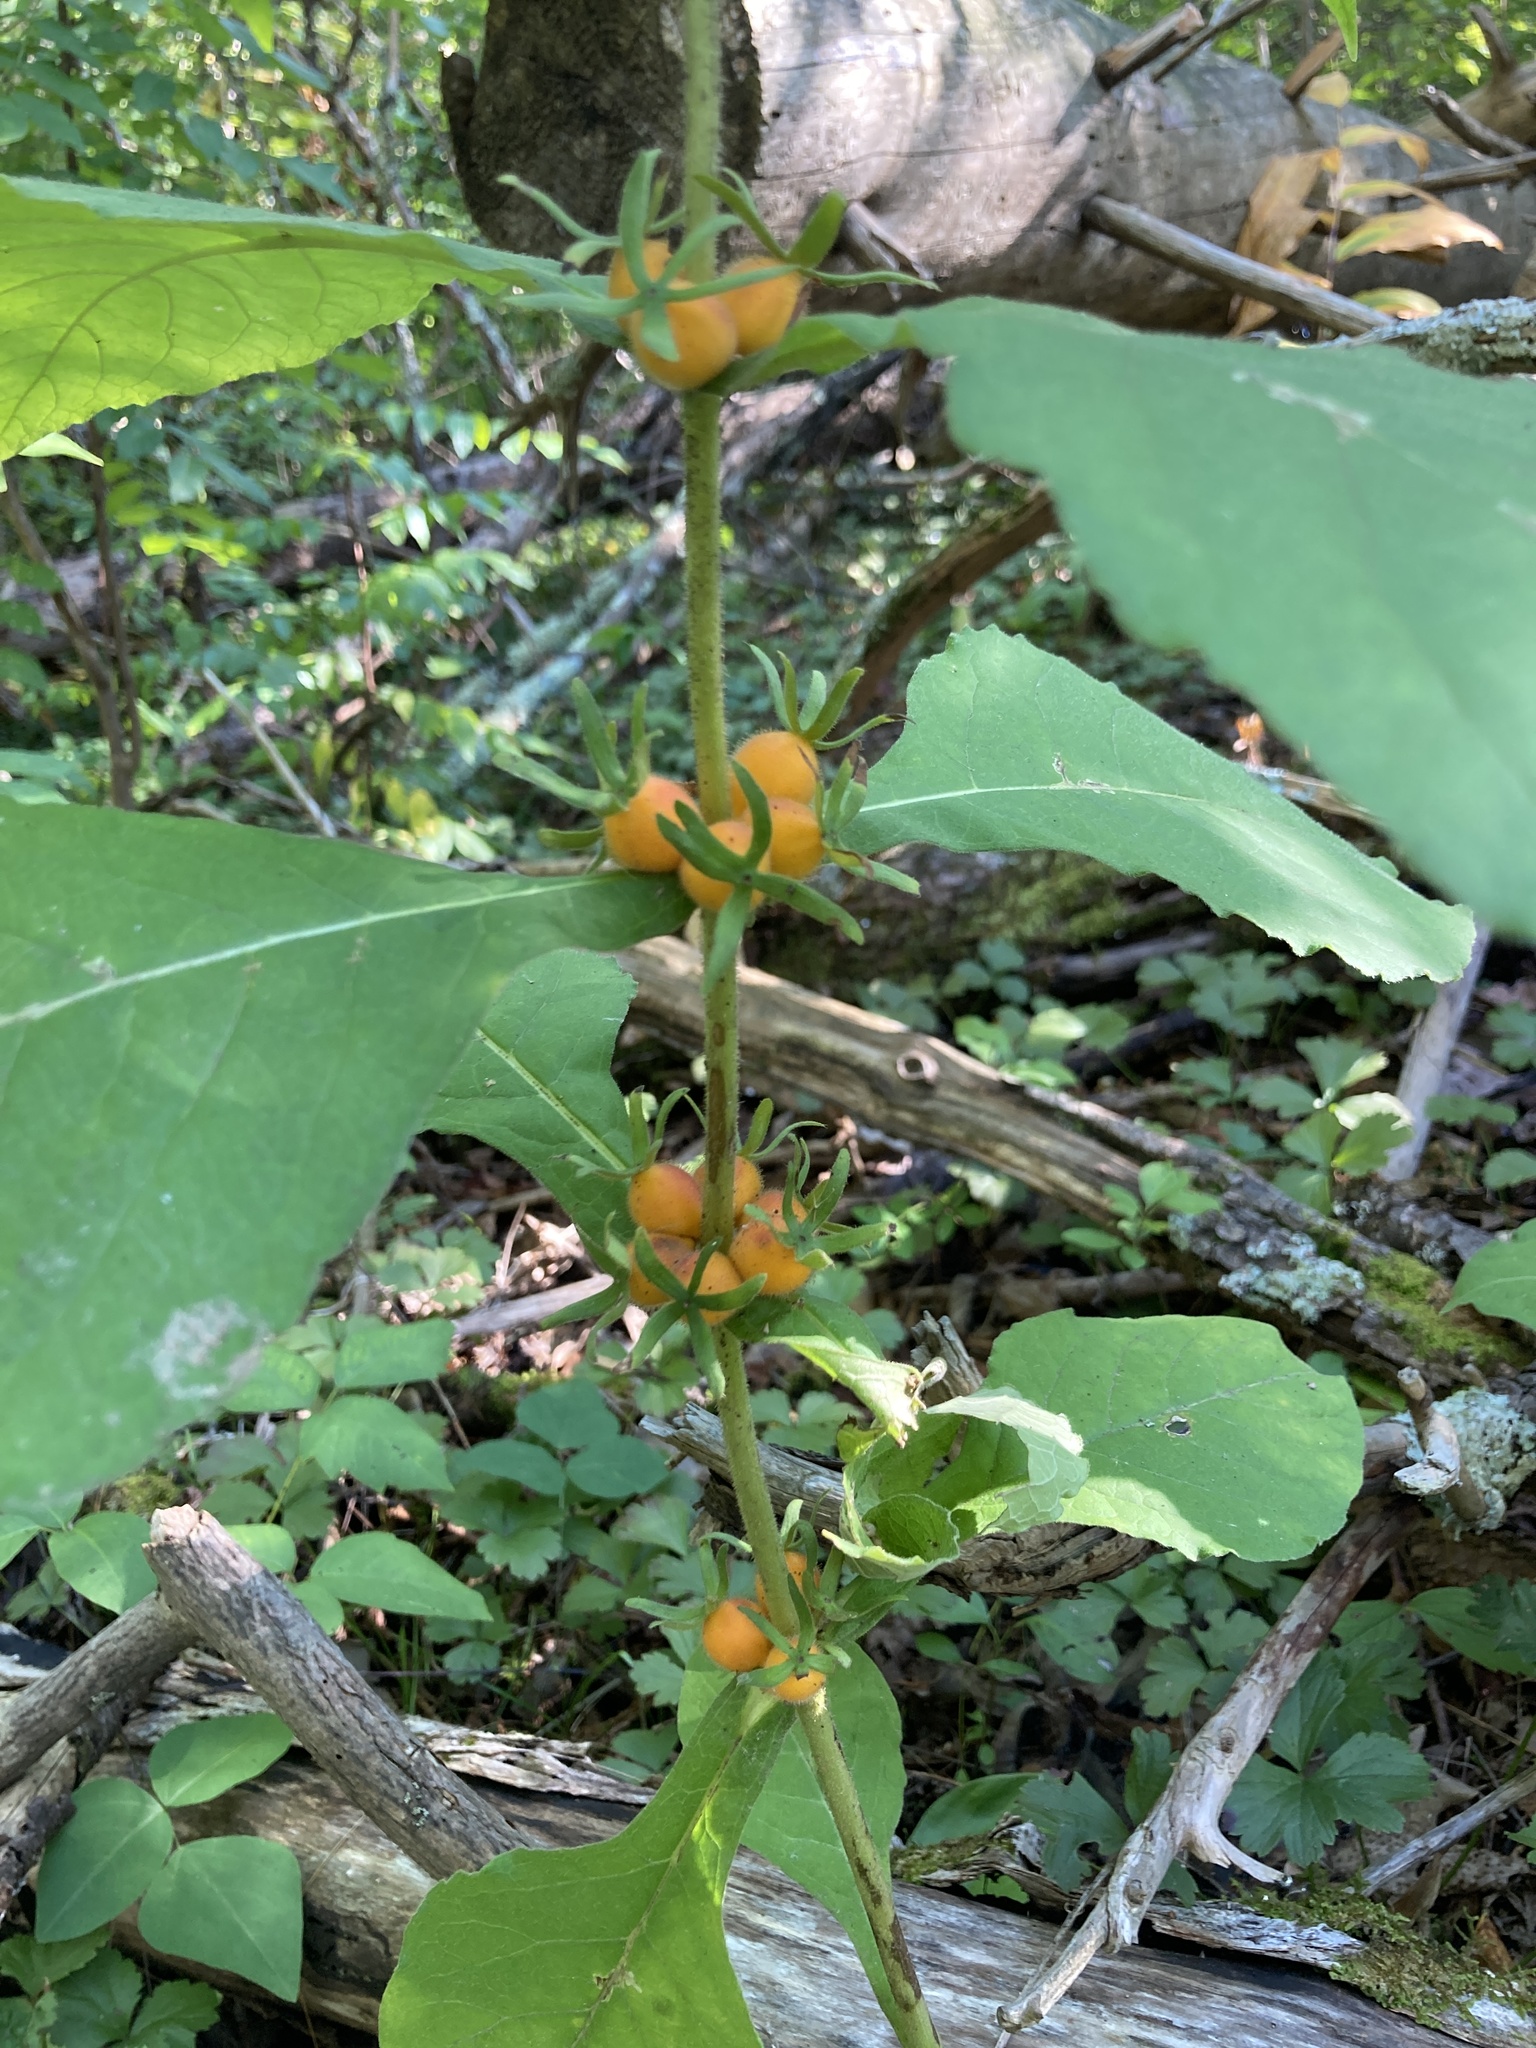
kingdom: Plantae
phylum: Tracheophyta
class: Magnoliopsida
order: Dipsacales
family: Caprifoliaceae
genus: Triosteum
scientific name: Triosteum aurantiacum
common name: Coffee tinker's-weed
